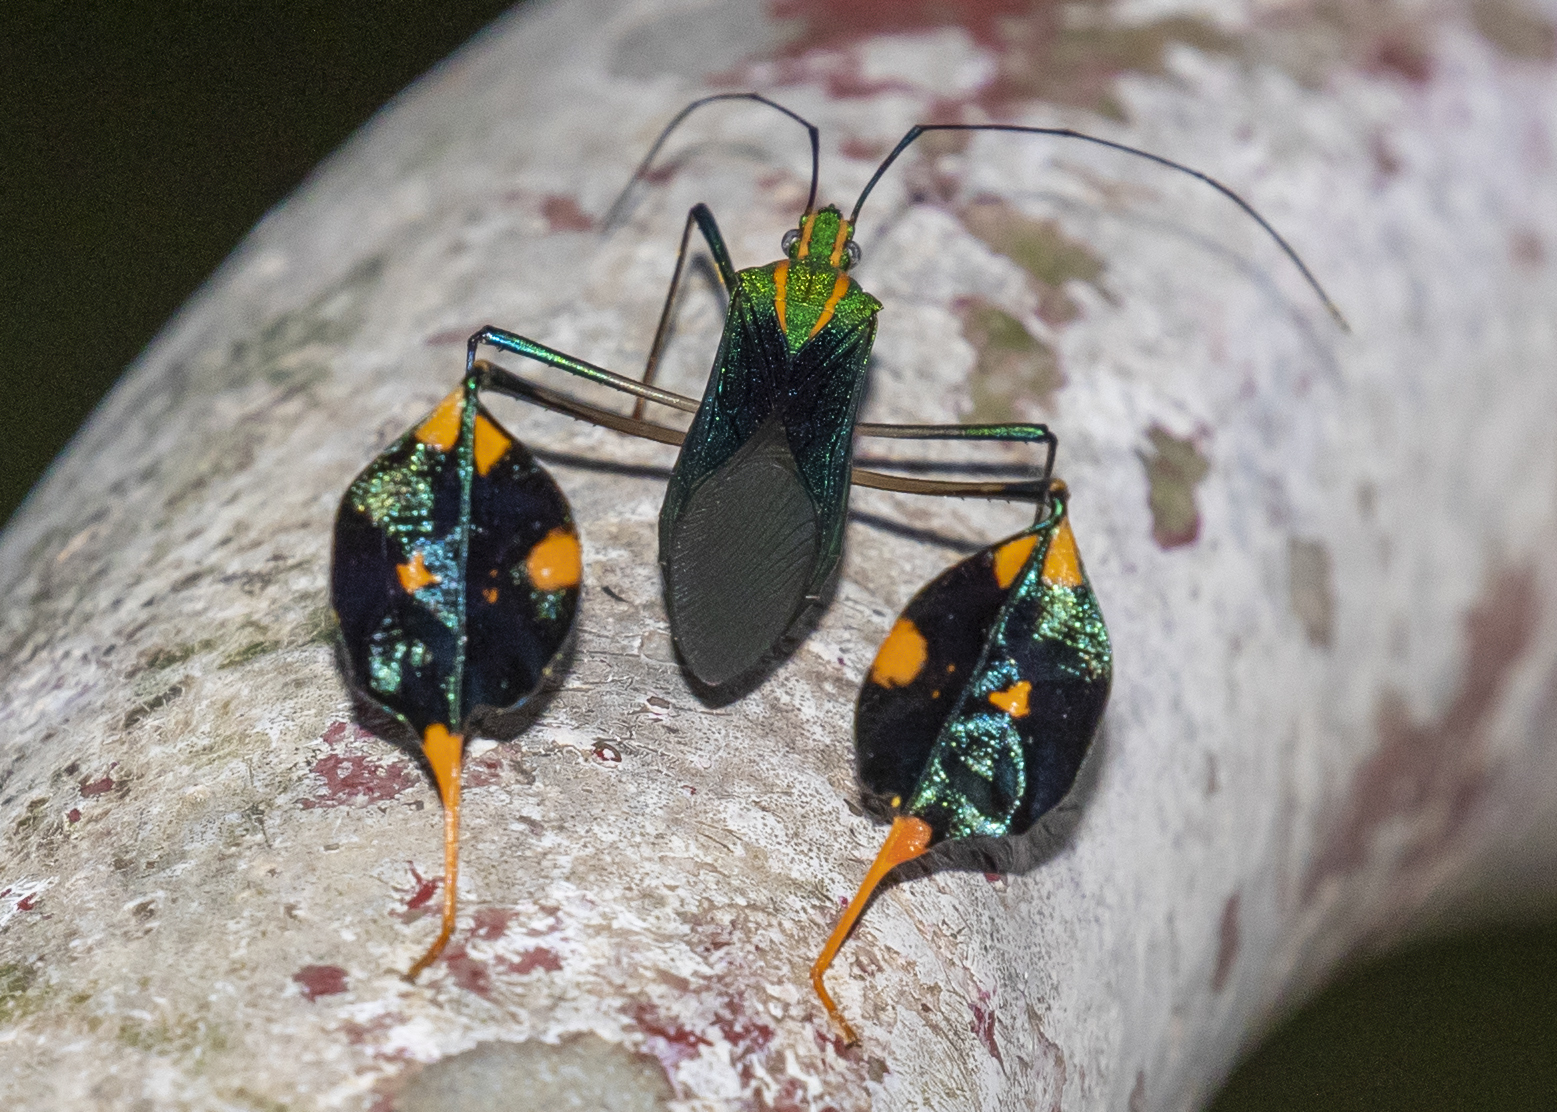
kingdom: Animalia
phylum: Arthropoda
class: Insecta
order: Hemiptera
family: Coreidae
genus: Diactor
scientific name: Diactor bilineatus
